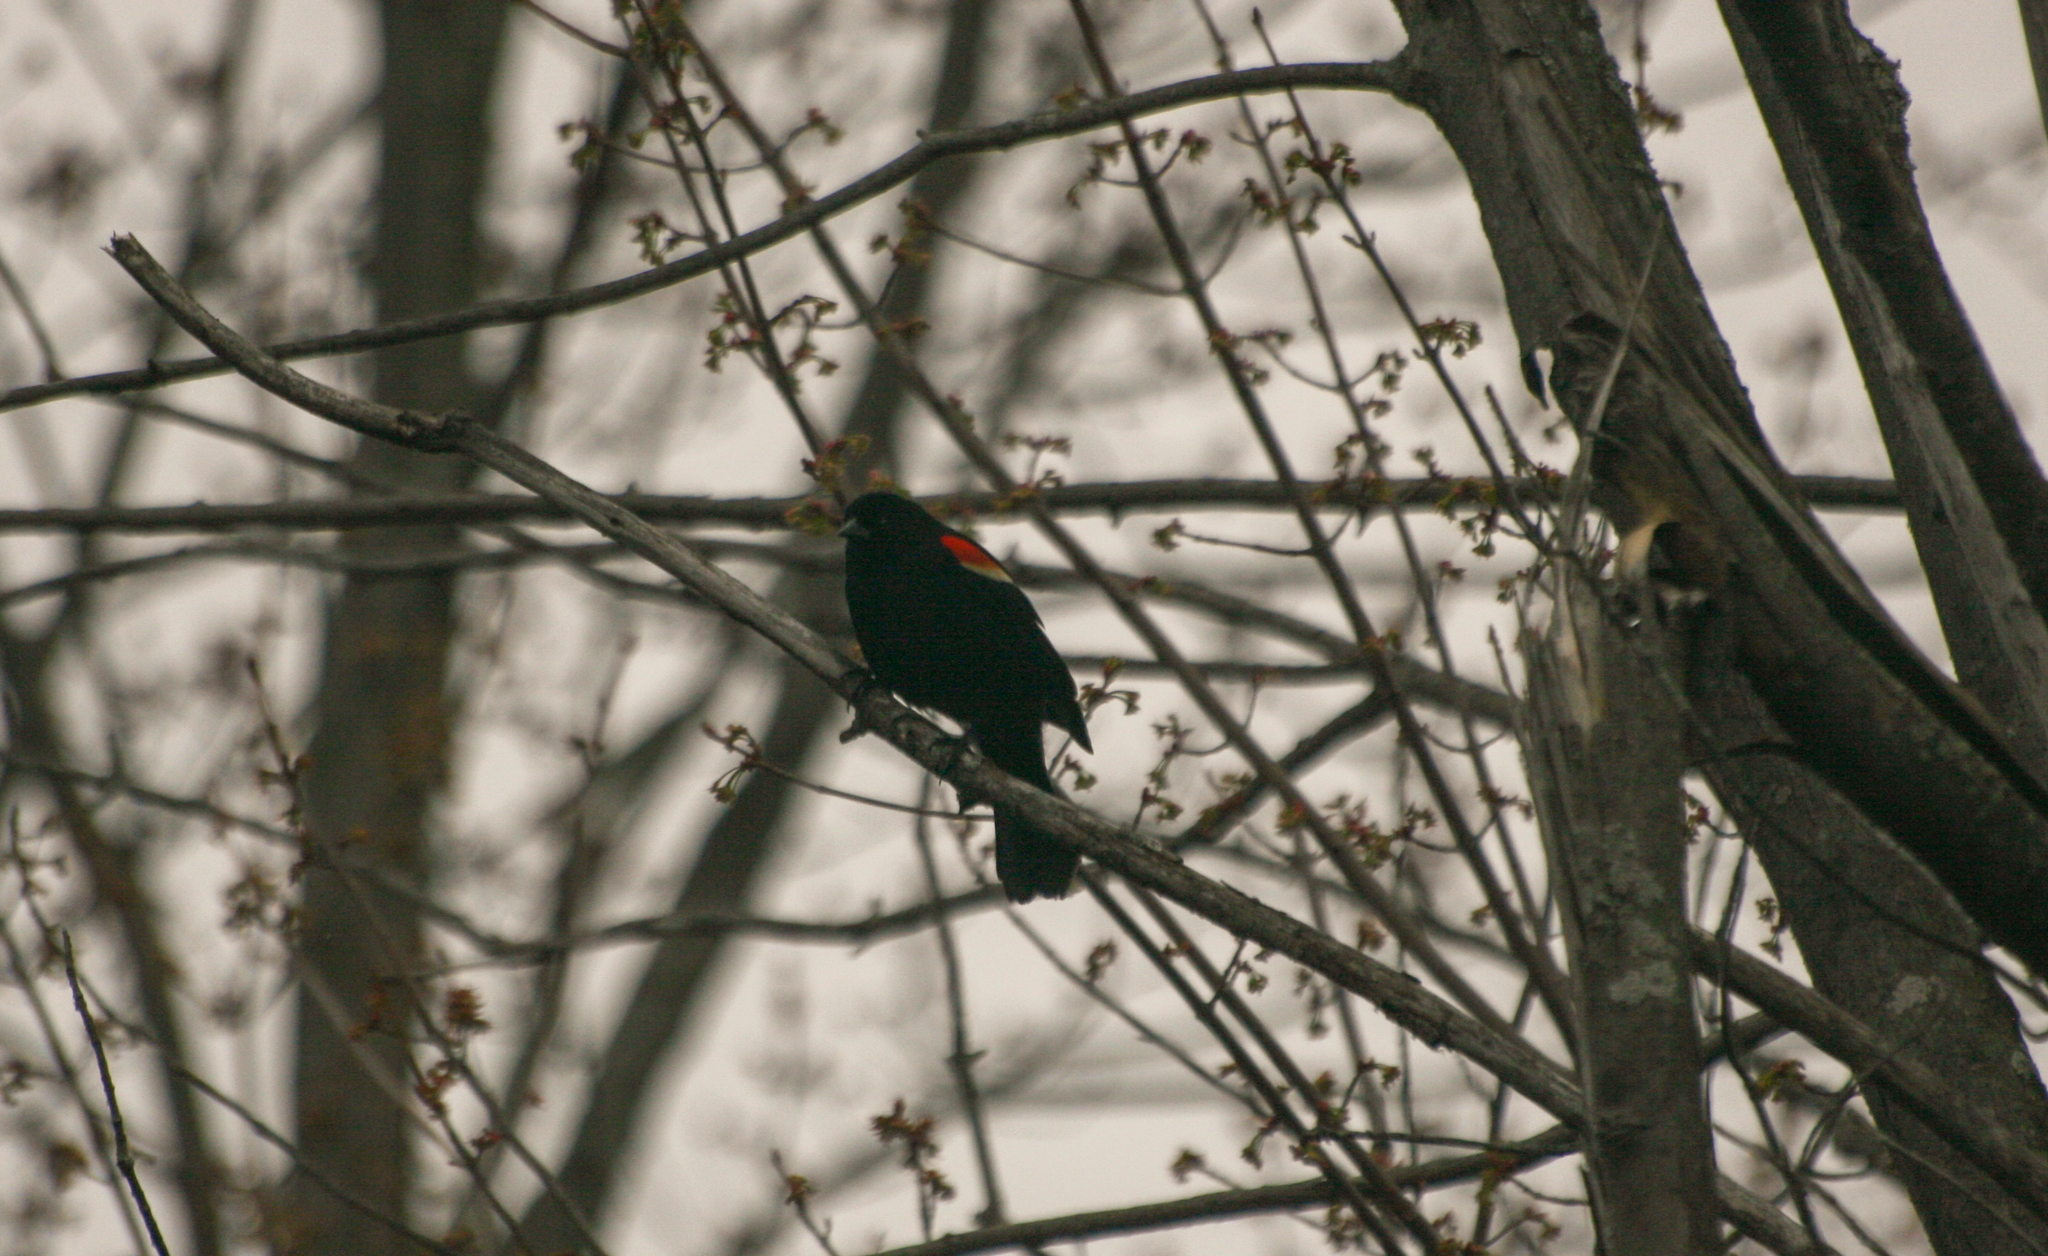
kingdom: Animalia
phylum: Chordata
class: Aves
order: Passeriformes
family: Icteridae
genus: Agelaius
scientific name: Agelaius phoeniceus
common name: Red-winged blackbird
